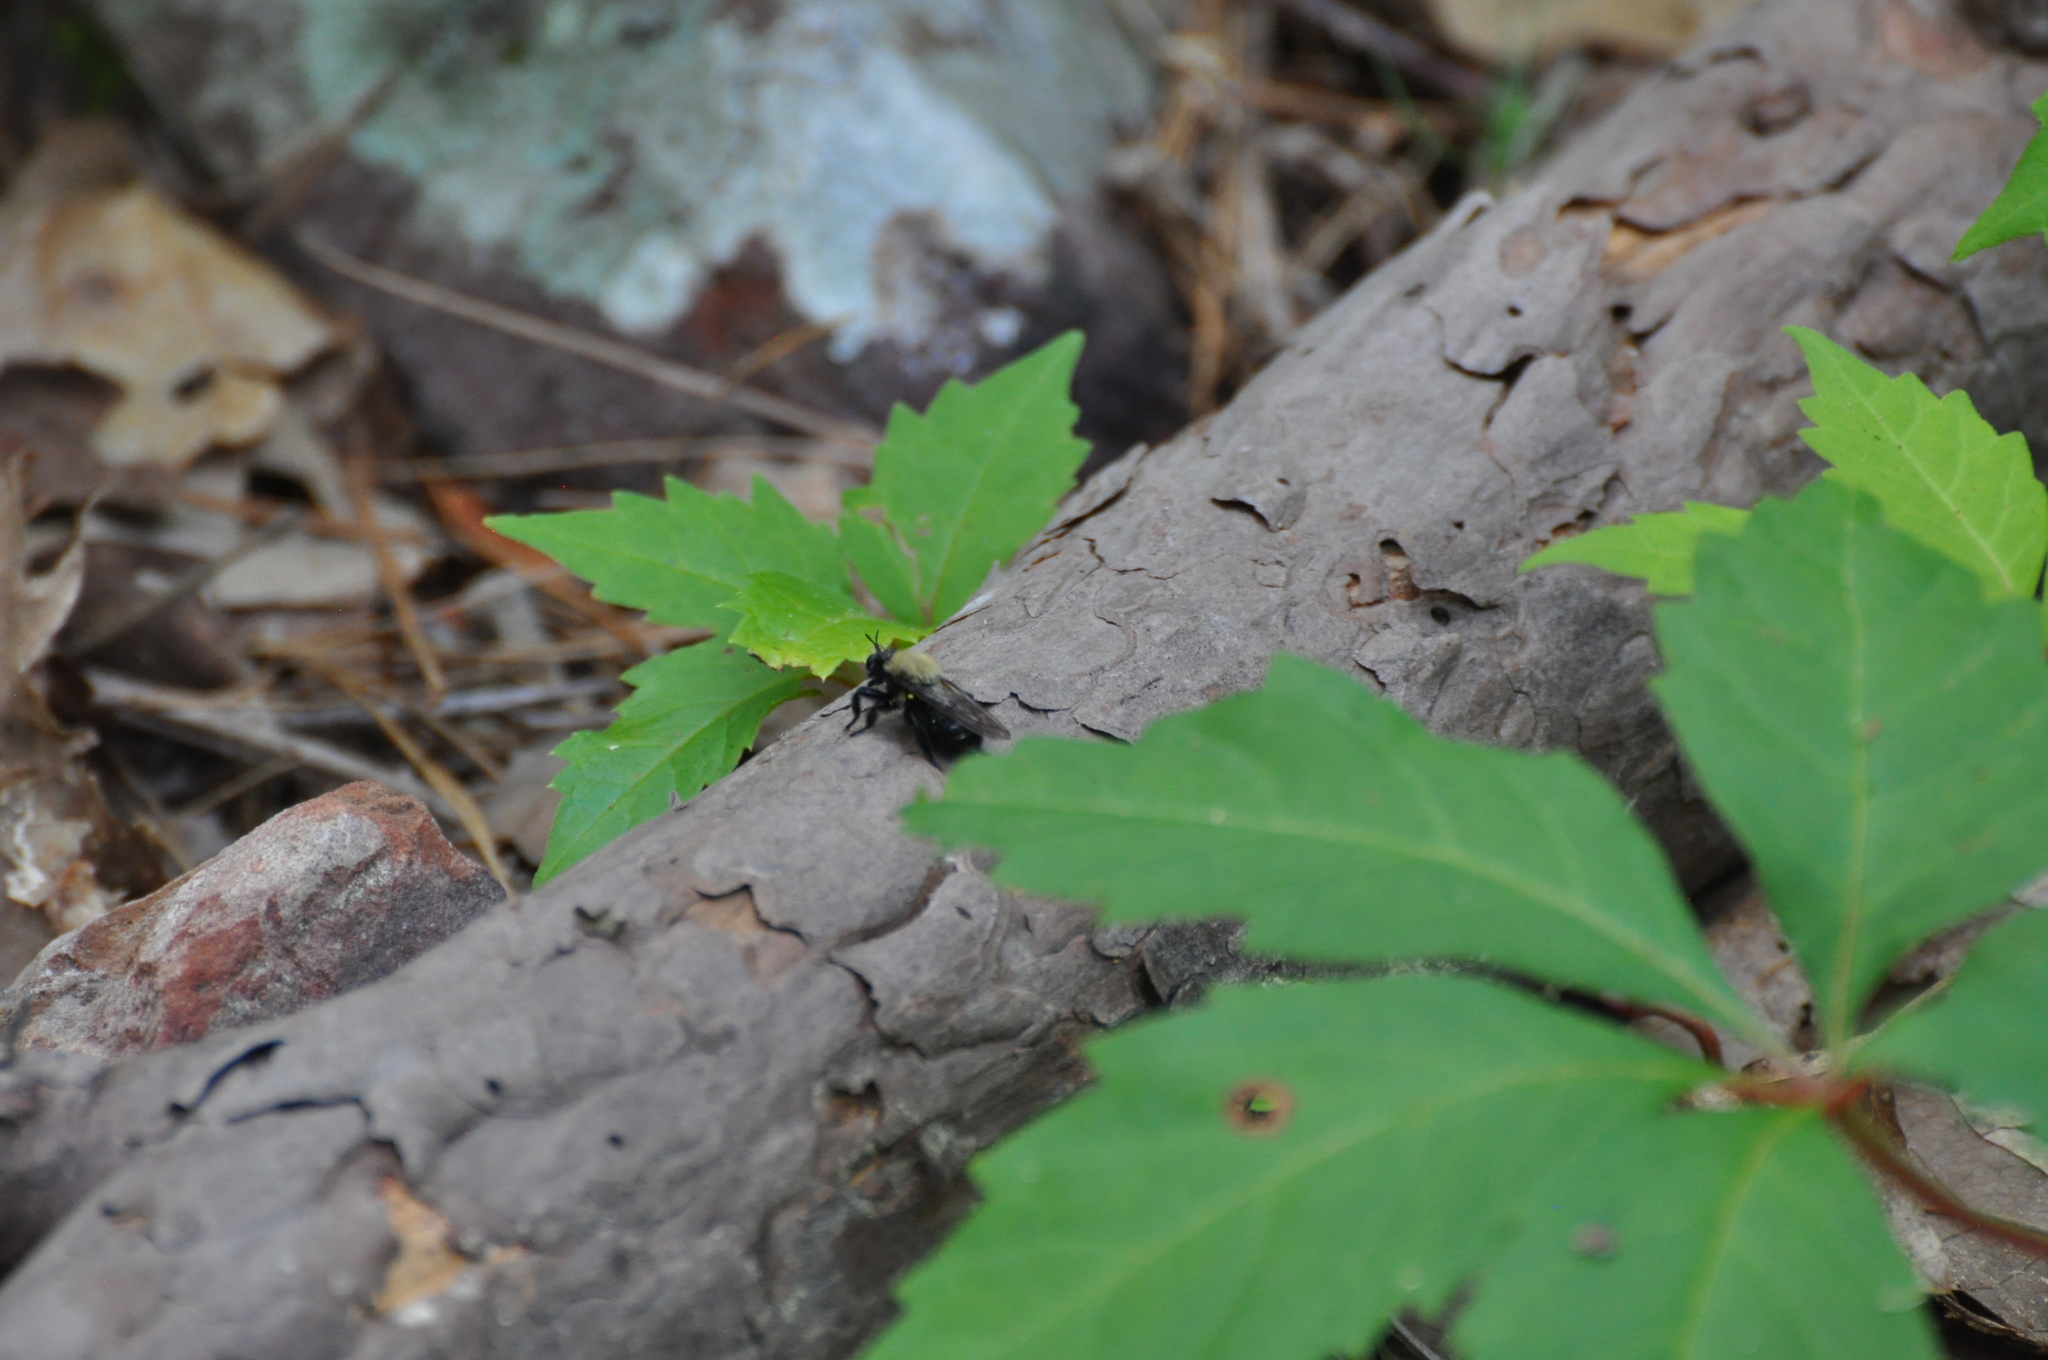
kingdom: Animalia
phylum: Arthropoda
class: Insecta
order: Diptera
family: Asilidae
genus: Laphria
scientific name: Laphria flavicollis
